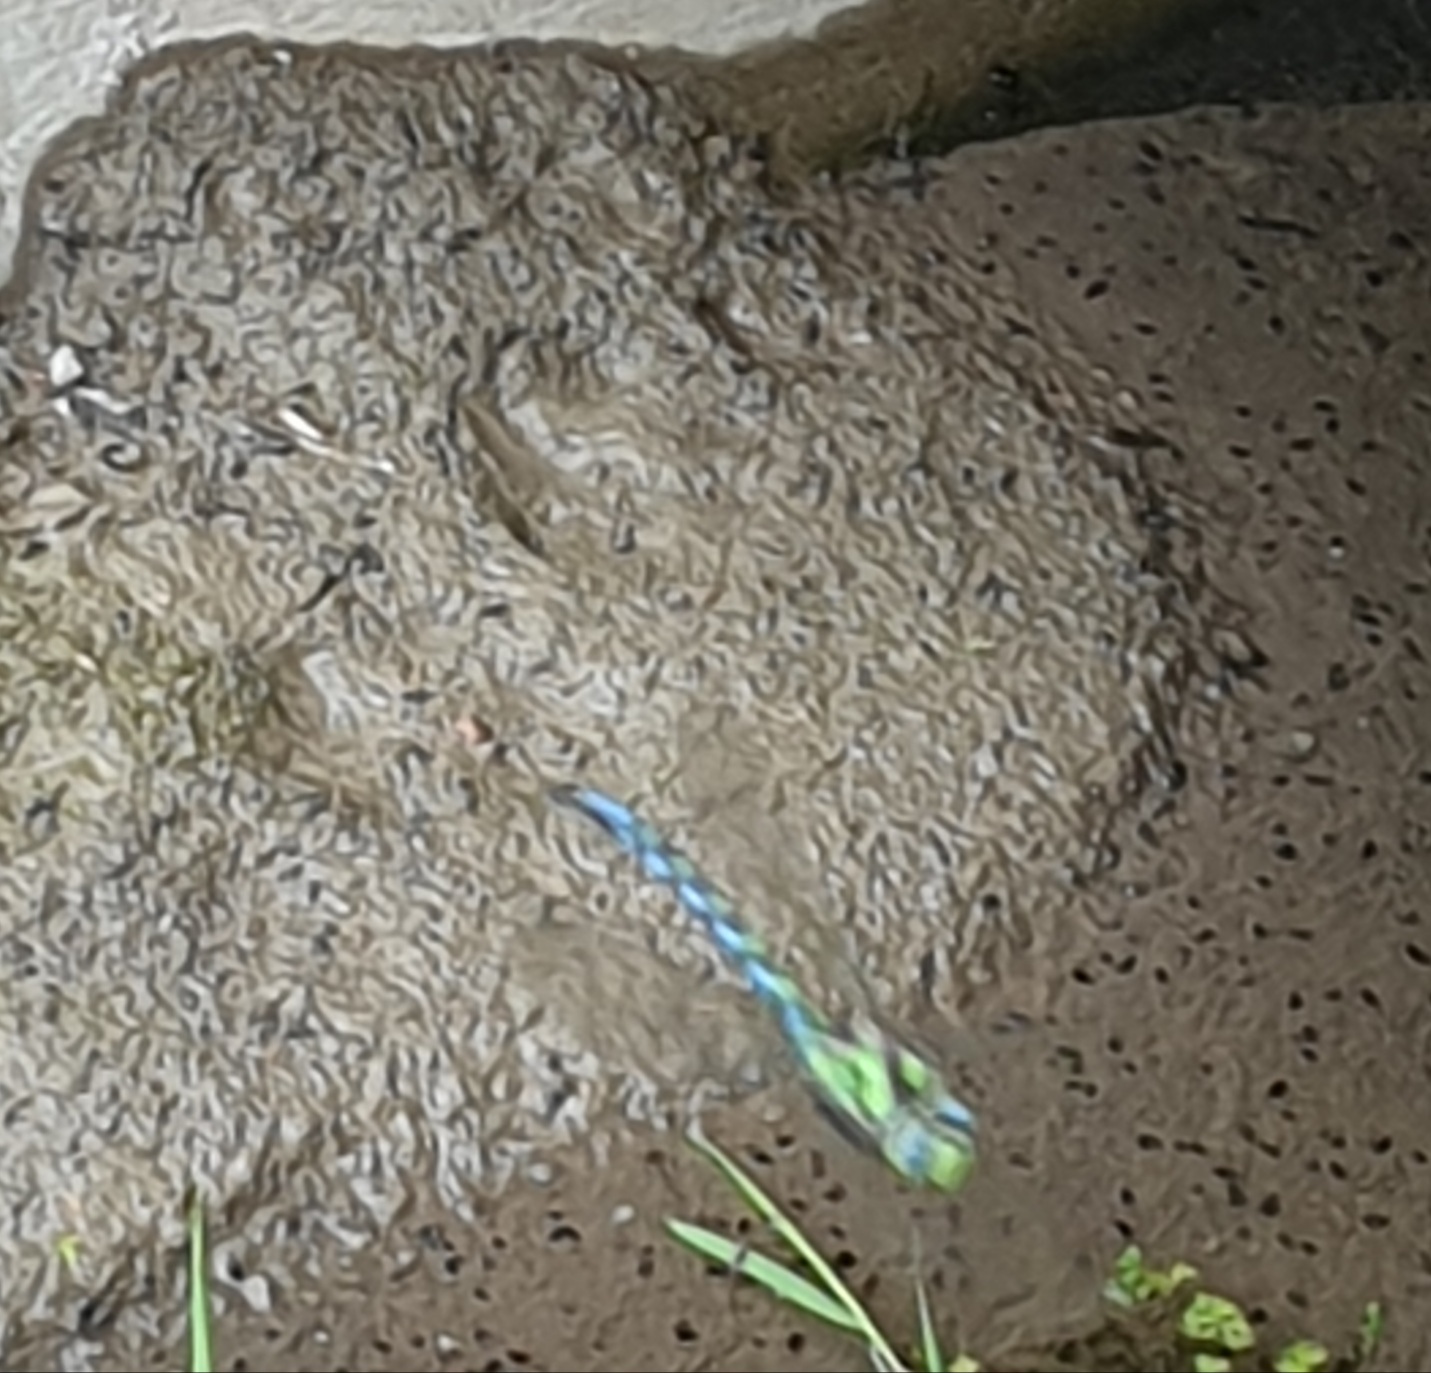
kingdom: Animalia
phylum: Arthropoda
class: Insecta
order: Odonata
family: Aeshnidae
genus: Aeshna
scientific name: Aeshna cyanea
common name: Southern hawker
